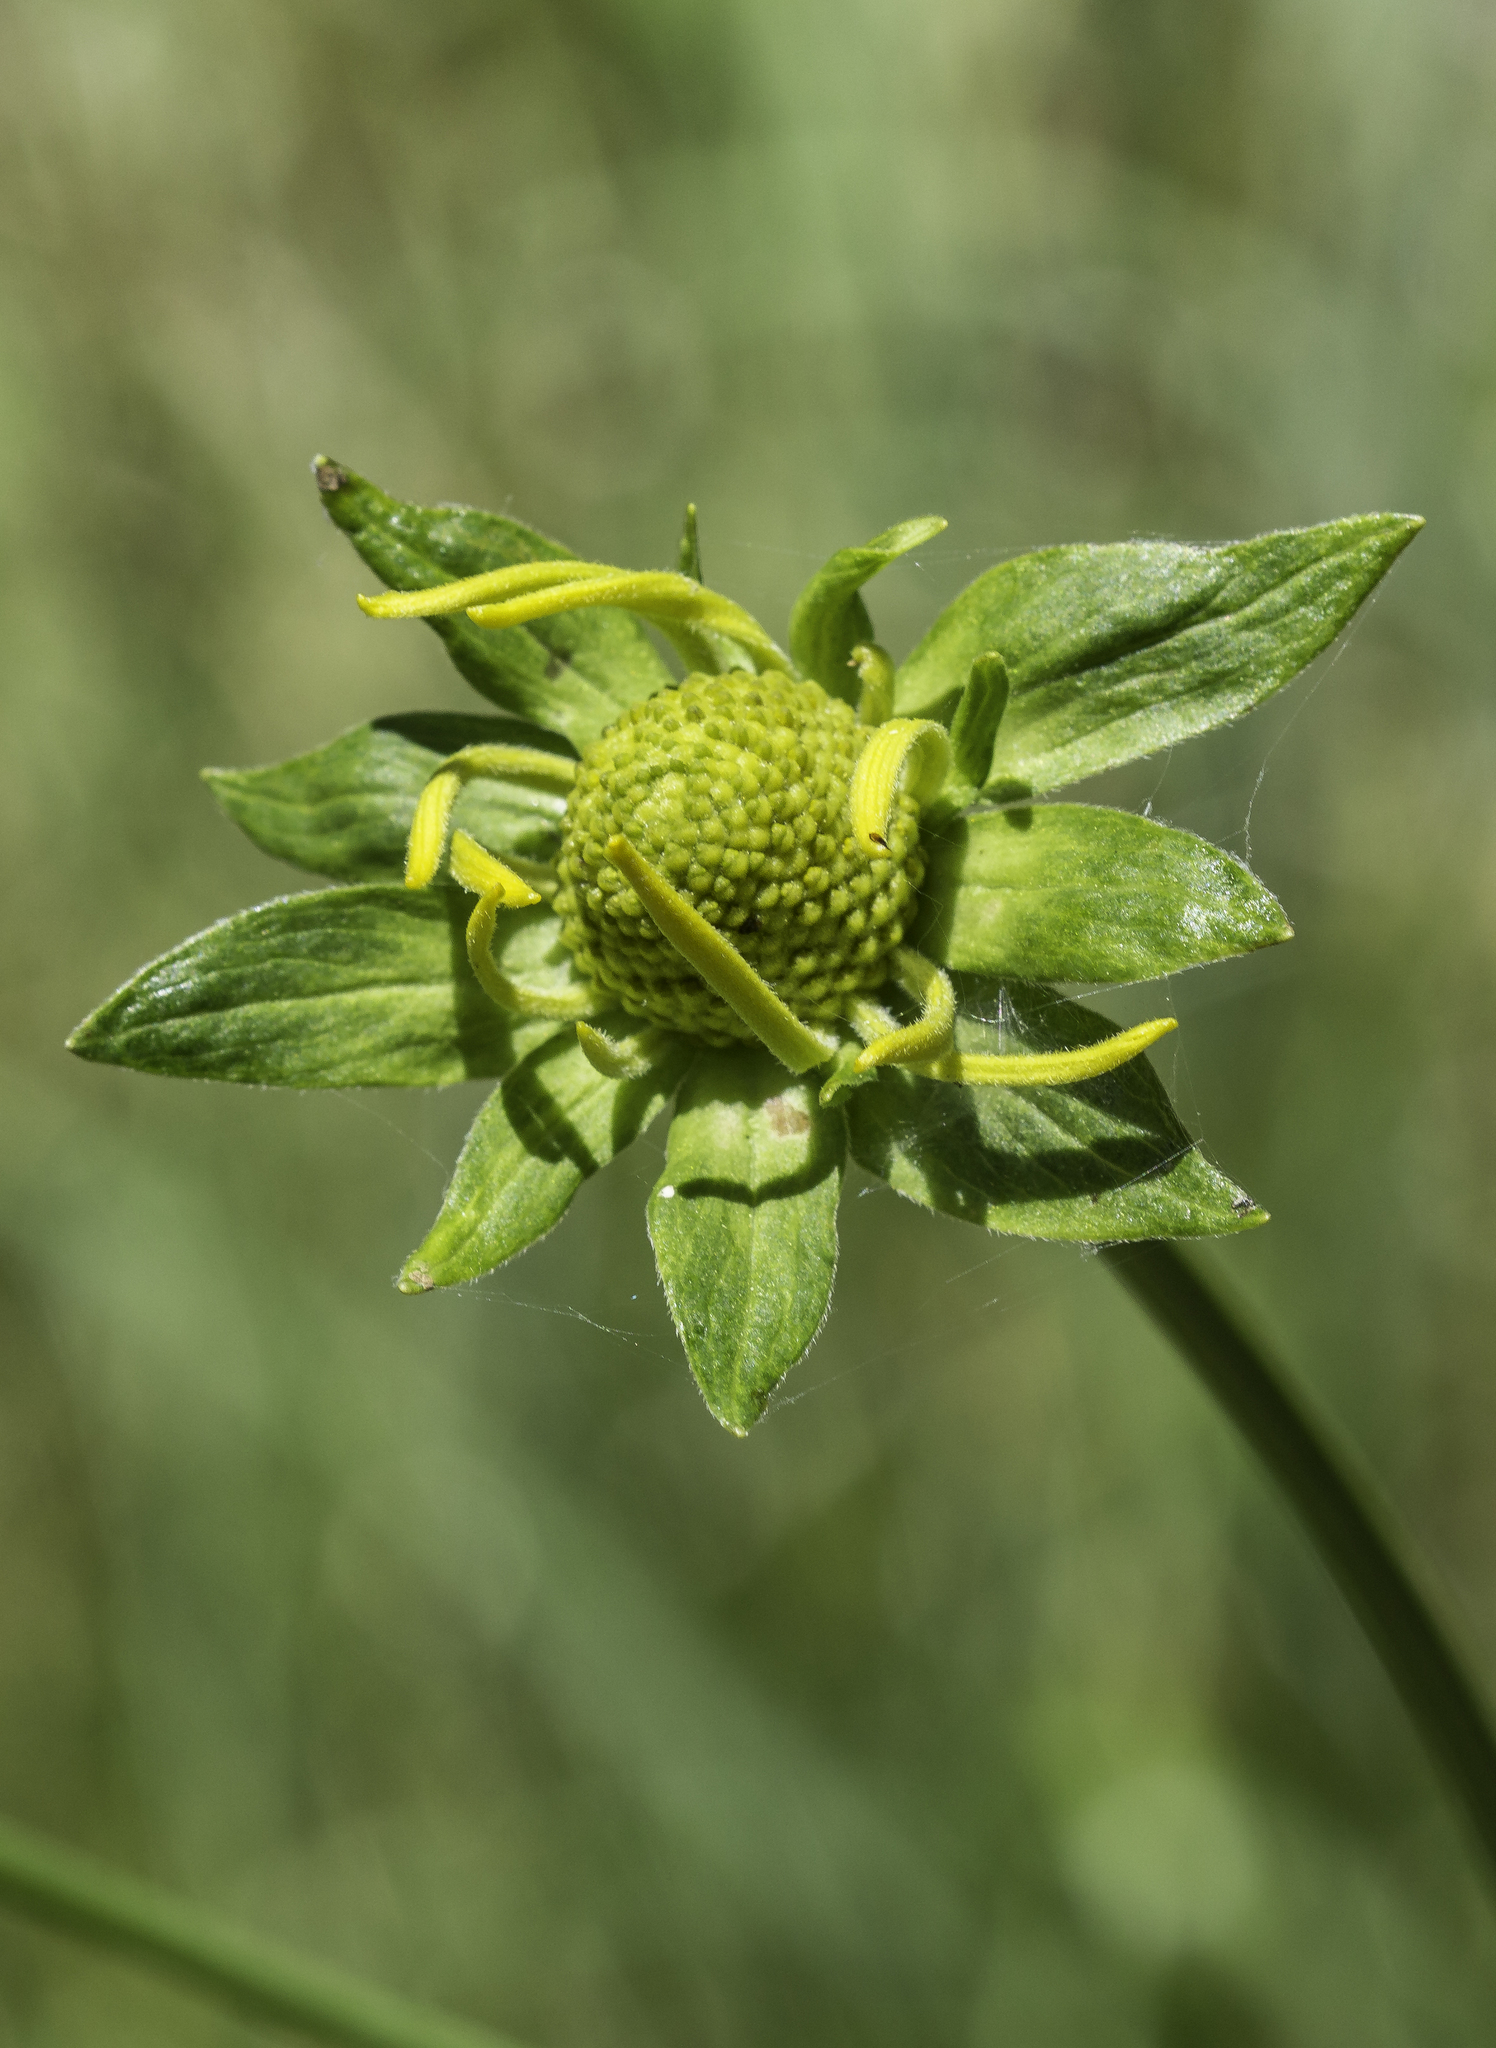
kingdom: Plantae
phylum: Tracheophyta
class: Magnoliopsida
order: Asterales
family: Asteraceae
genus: Rudbeckia
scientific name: Rudbeckia laciniata
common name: Coneflower
